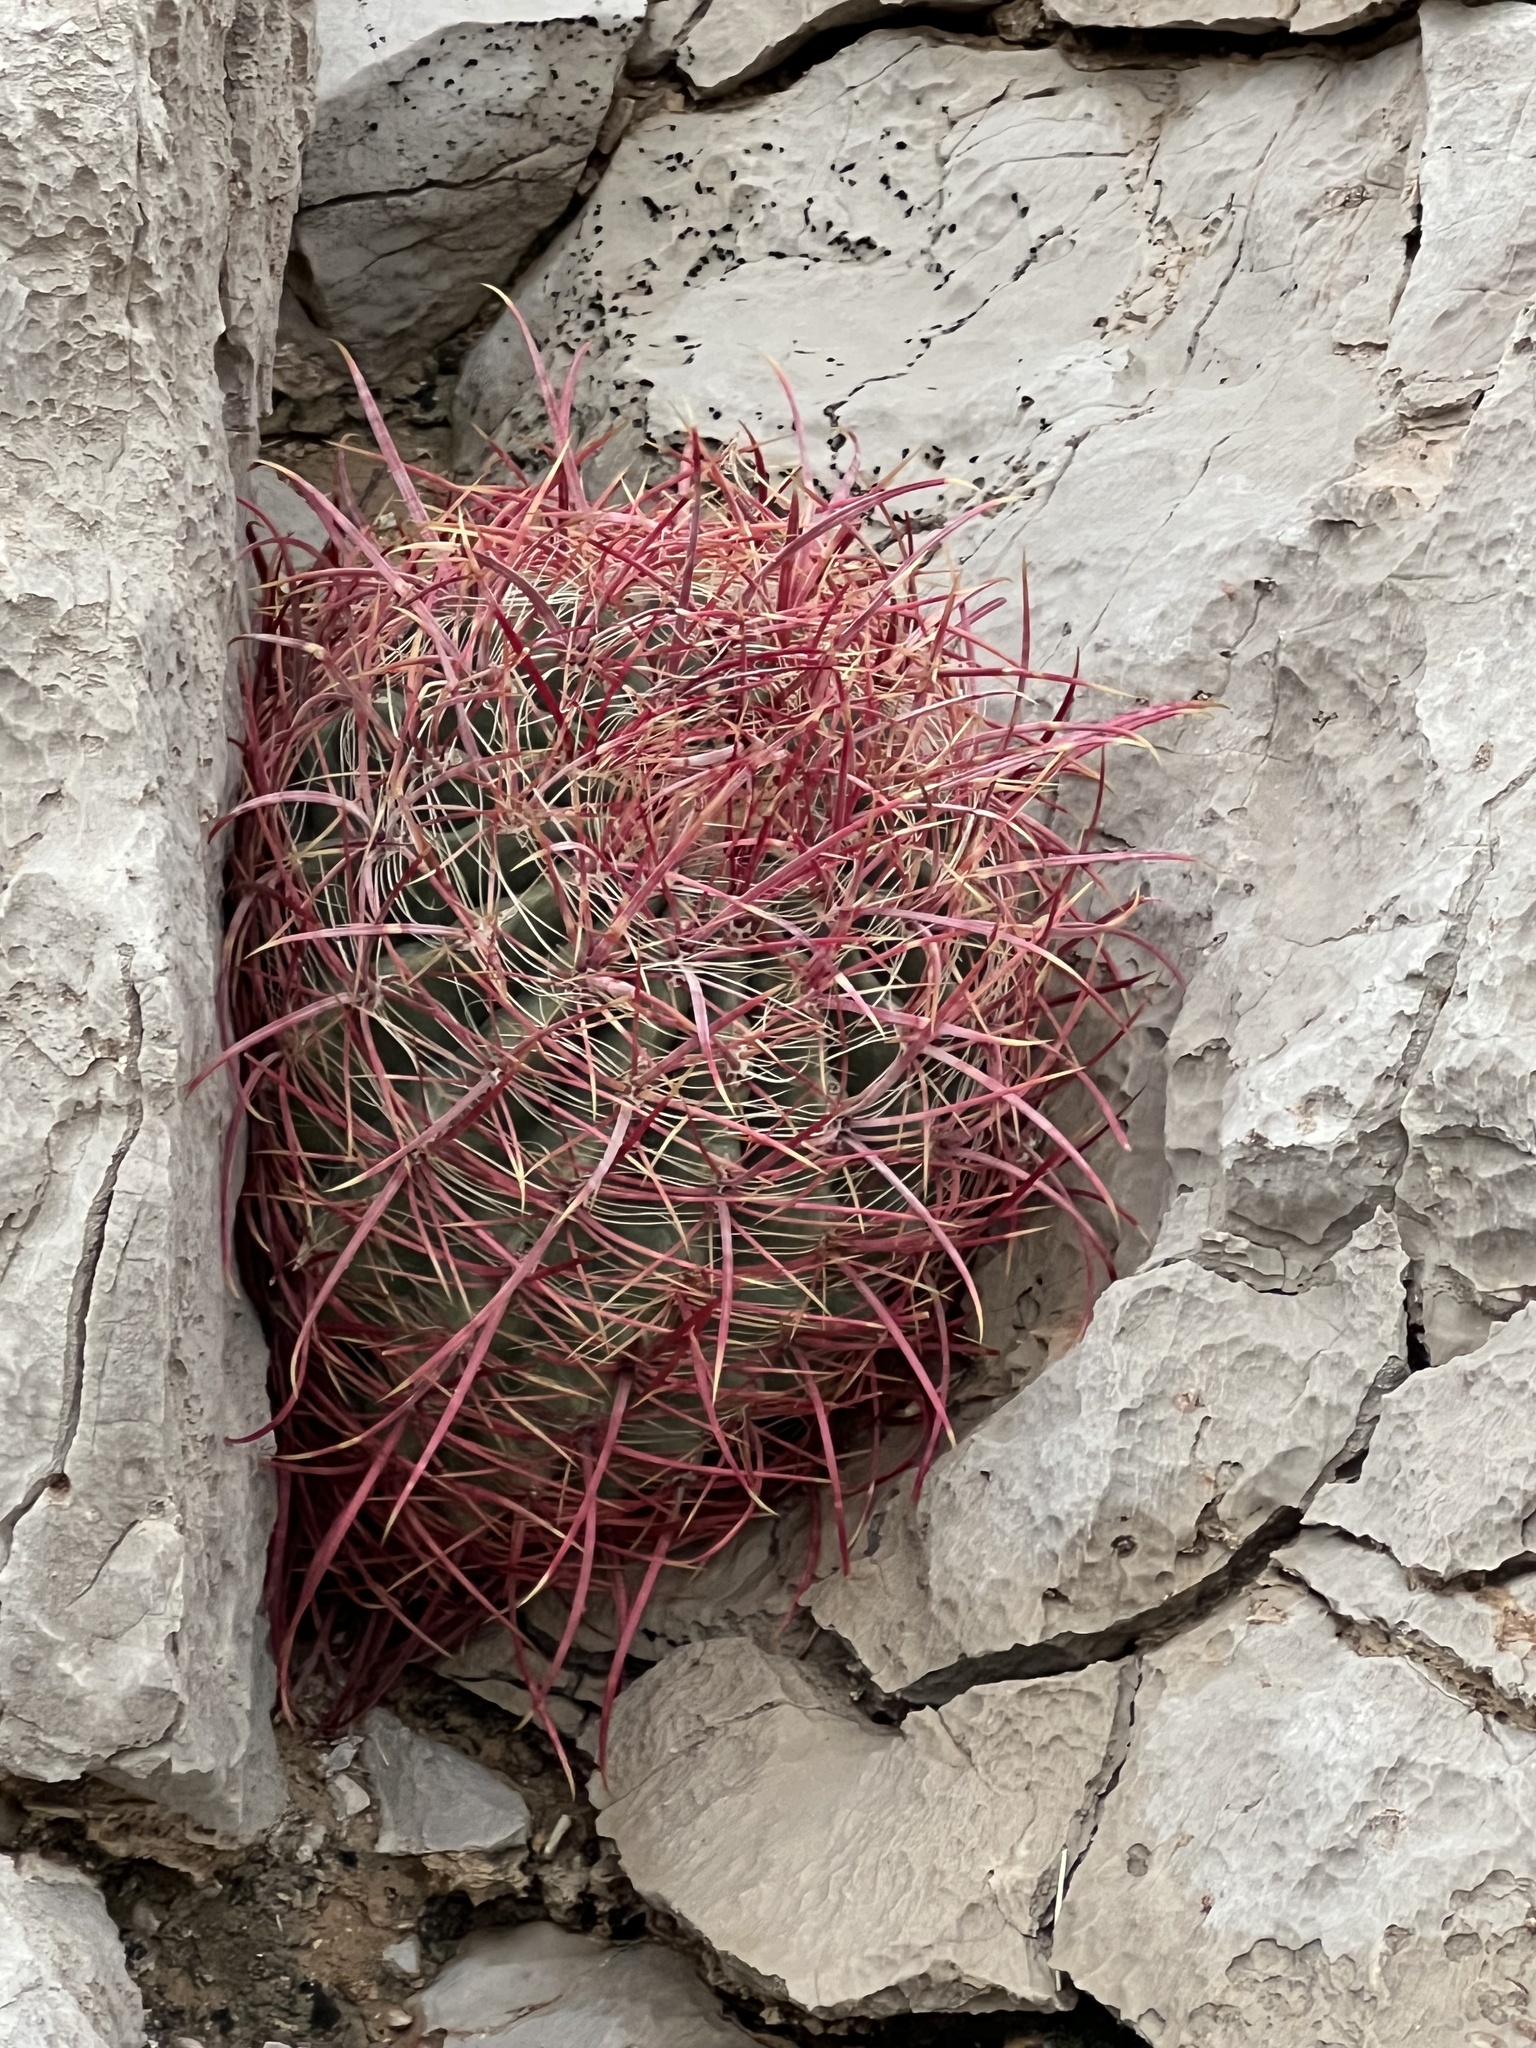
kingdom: Plantae
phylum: Tracheophyta
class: Magnoliopsida
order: Caryophyllales
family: Cactaceae
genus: Ferocactus
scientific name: Ferocactus cylindraceus
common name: California barrel cactus
